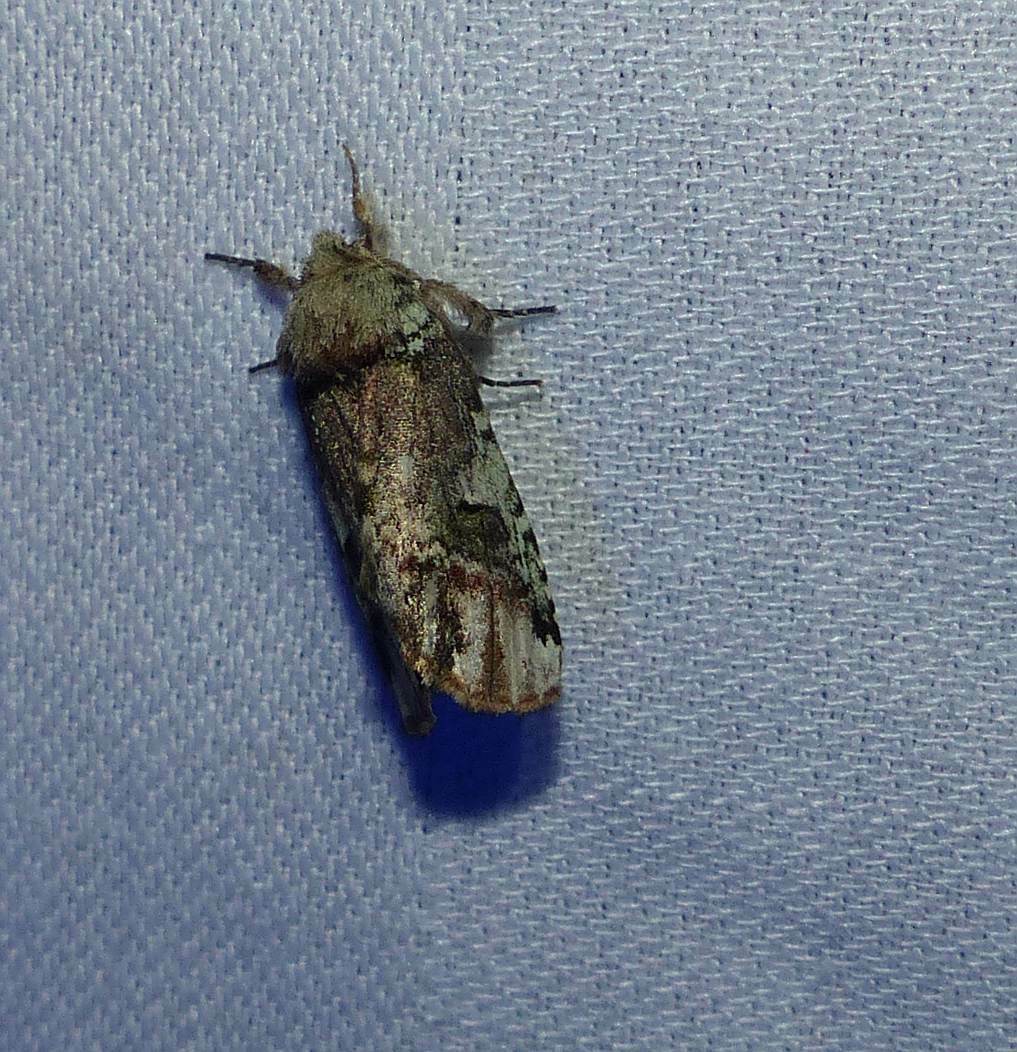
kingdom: Animalia
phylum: Arthropoda
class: Insecta
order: Lepidoptera
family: Notodontidae
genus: Schizura
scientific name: Schizura
